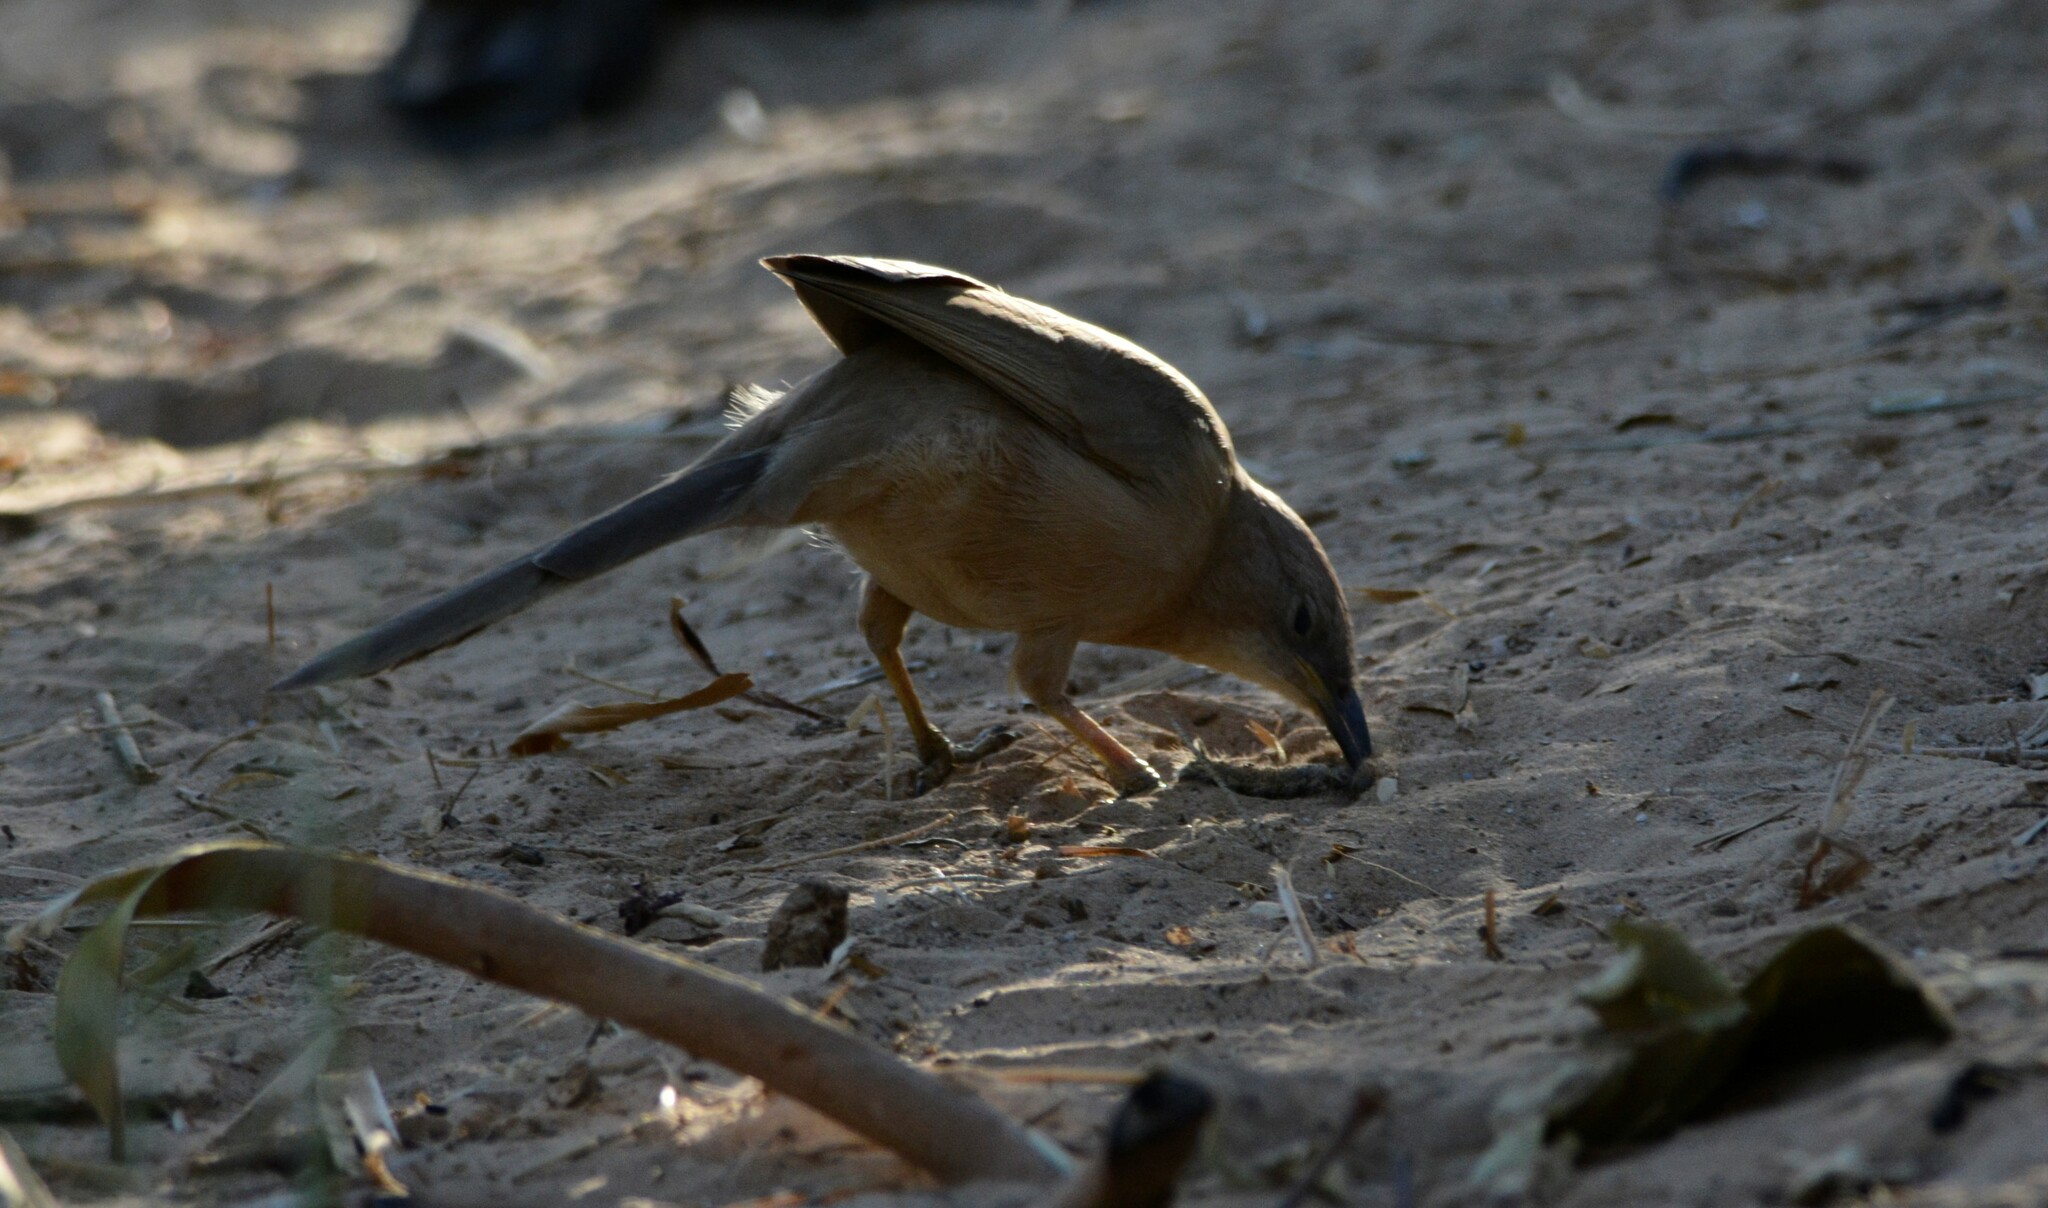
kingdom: Animalia
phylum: Chordata
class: Aves
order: Passeriformes
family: Leiothrichidae
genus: Turdoides
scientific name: Turdoides fulva
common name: Fulvous babbler
